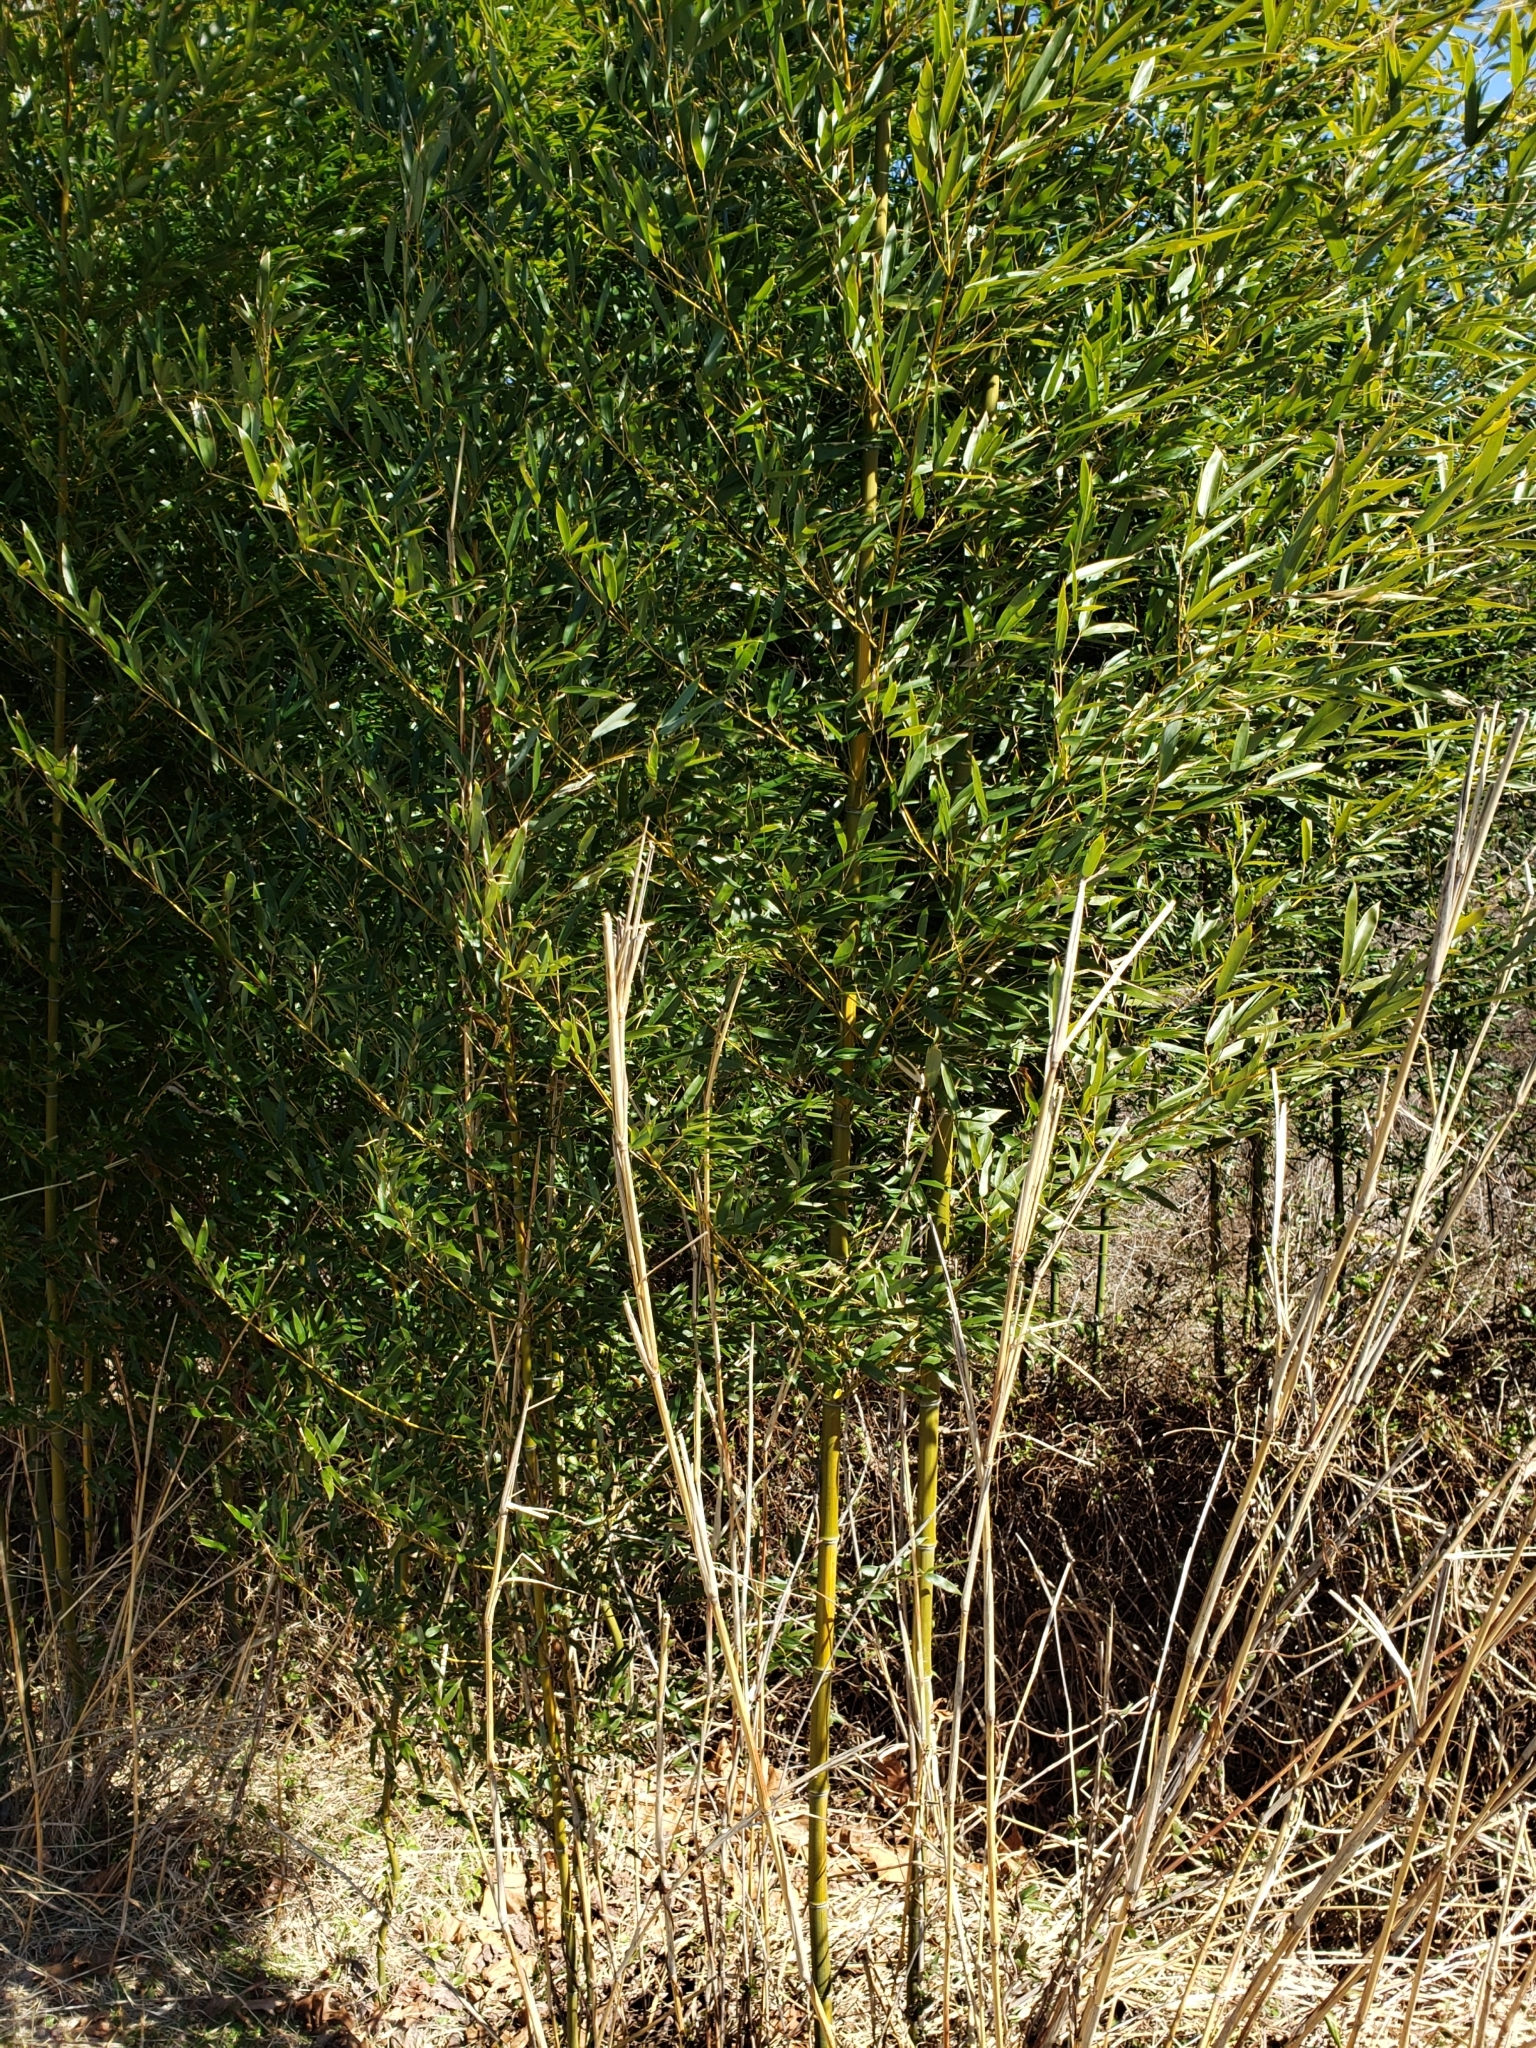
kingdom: Plantae
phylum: Tracheophyta
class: Liliopsida
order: Poales
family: Poaceae
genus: Phyllostachys
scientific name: Phyllostachys aureosulcata
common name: Yellow groove bamboo
